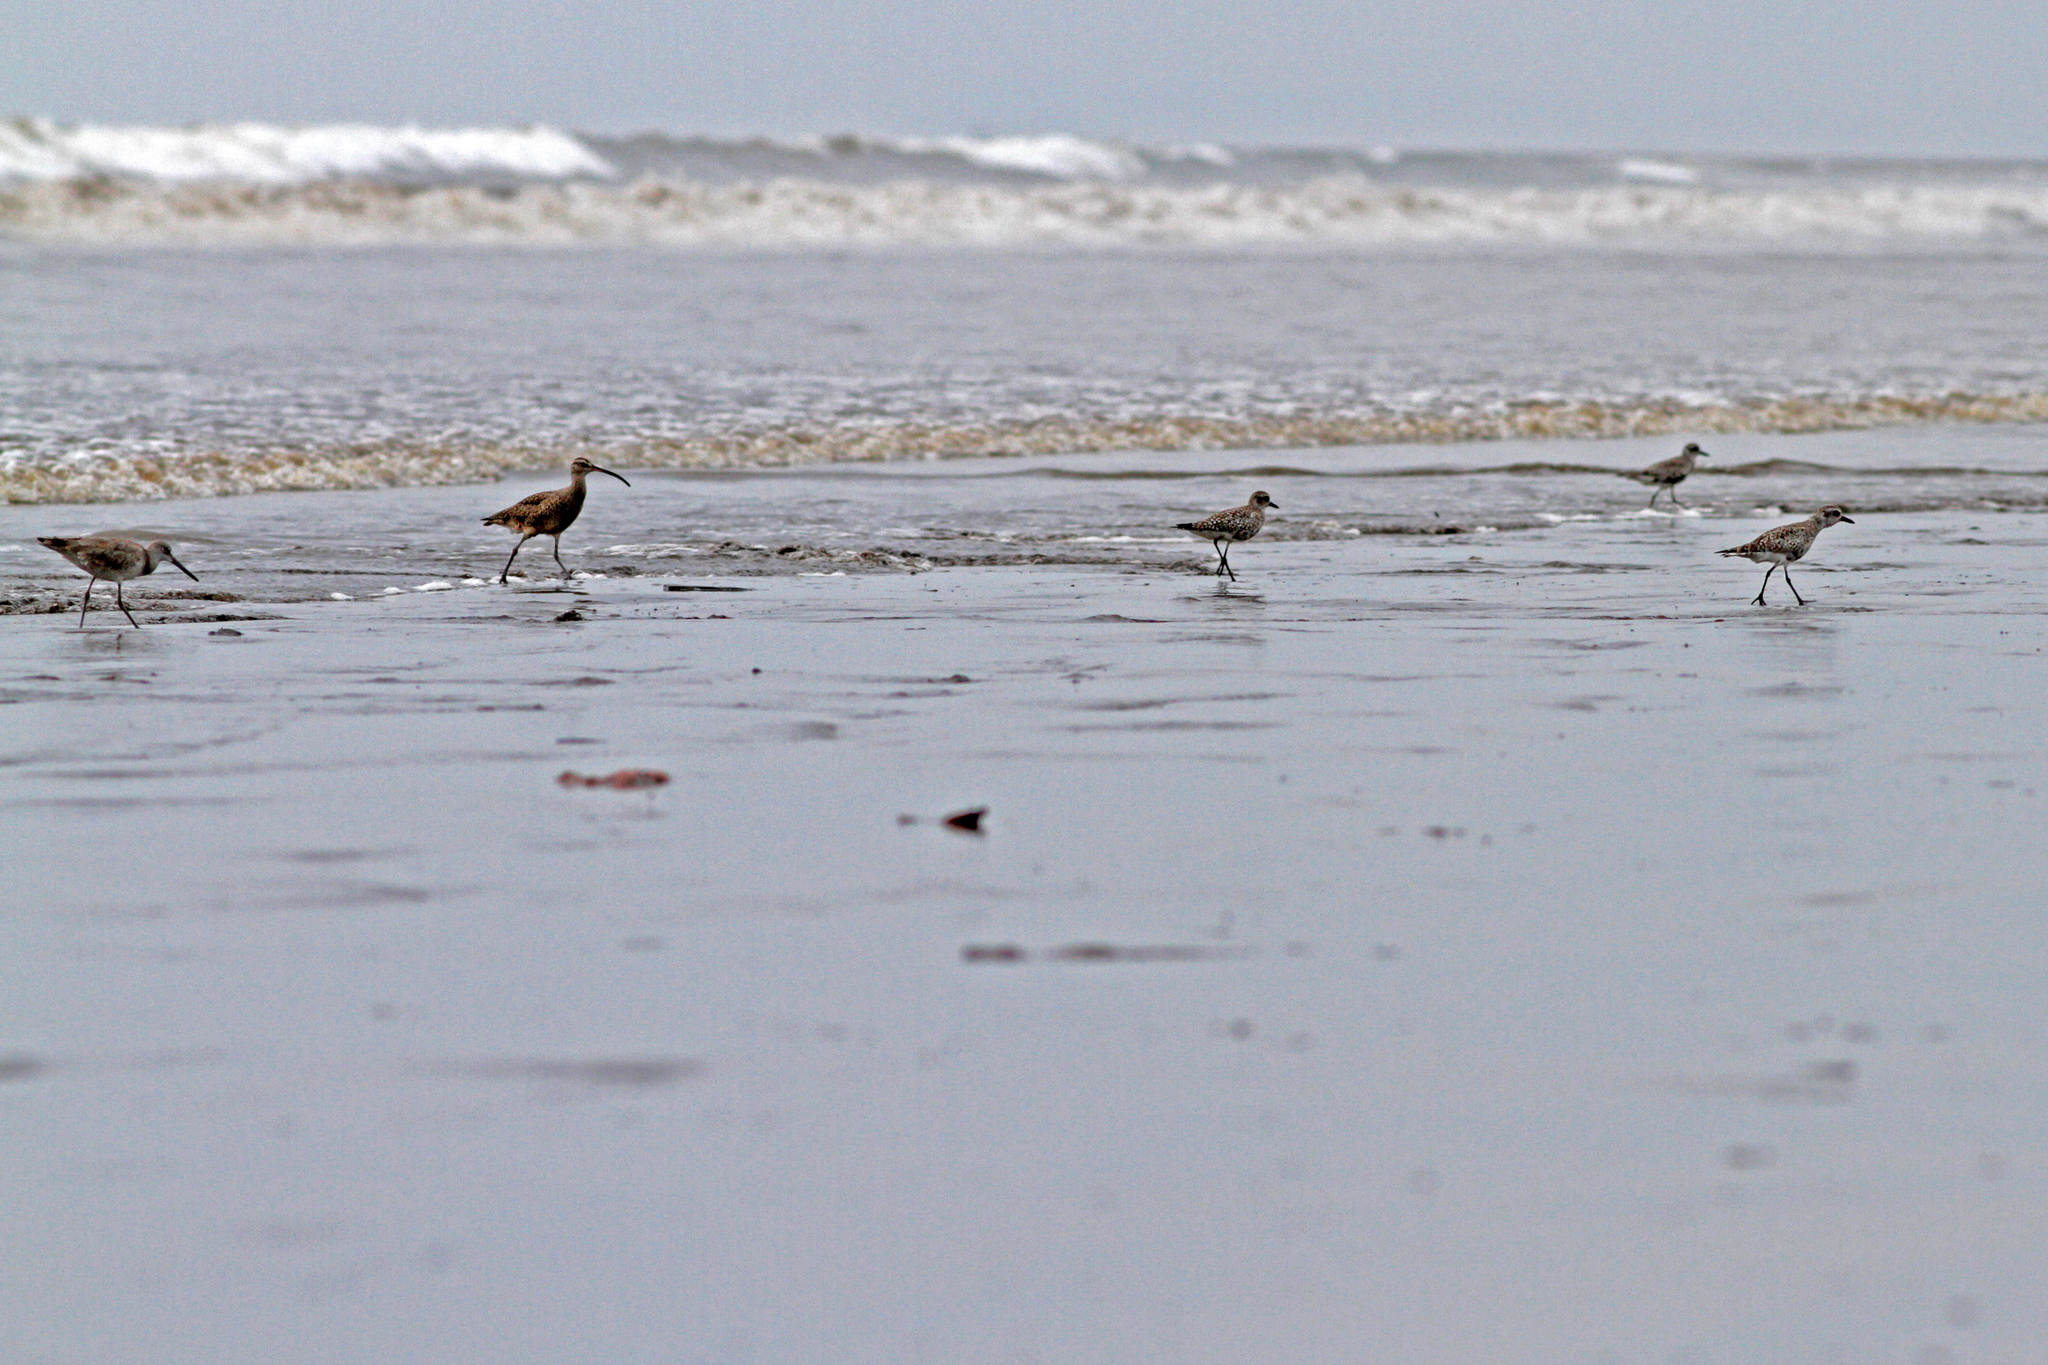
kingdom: Animalia
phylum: Chordata
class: Aves
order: Charadriiformes
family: Scolopacidae
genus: Numenius
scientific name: Numenius phaeopus
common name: Whimbrel
